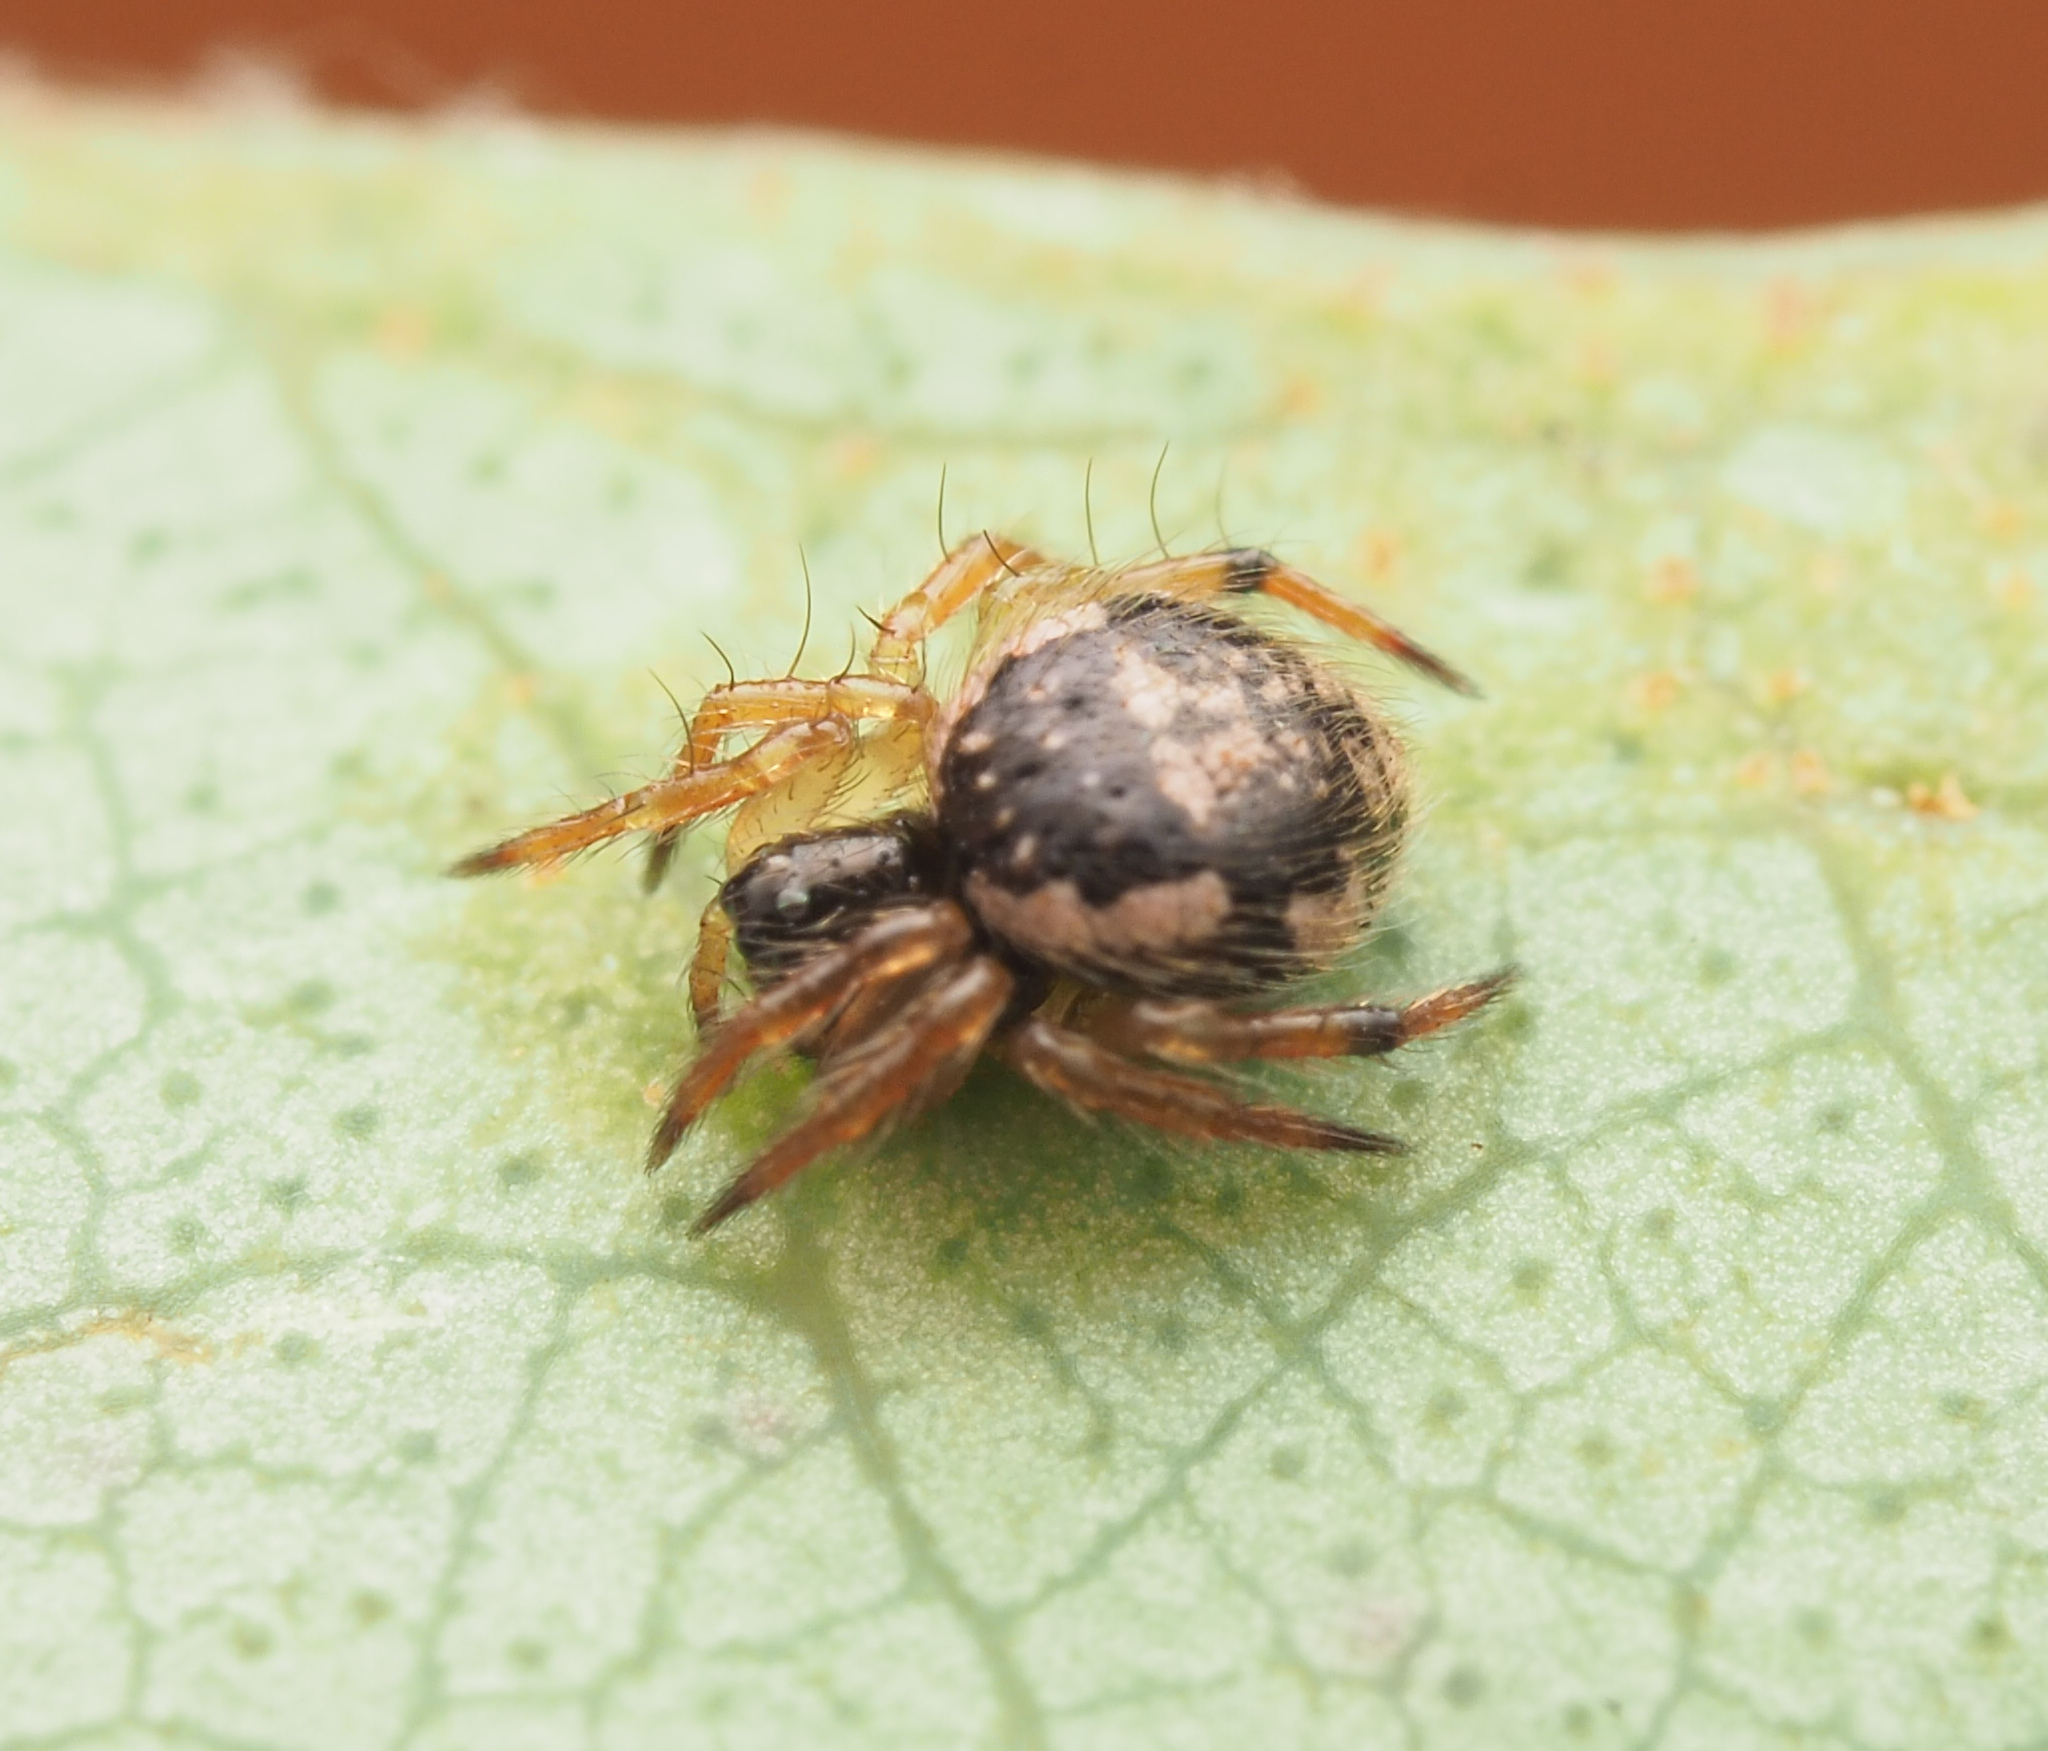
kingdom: Animalia
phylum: Arthropoda
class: Arachnida
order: Araneae
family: Theridiidae
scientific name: Theridiidae
